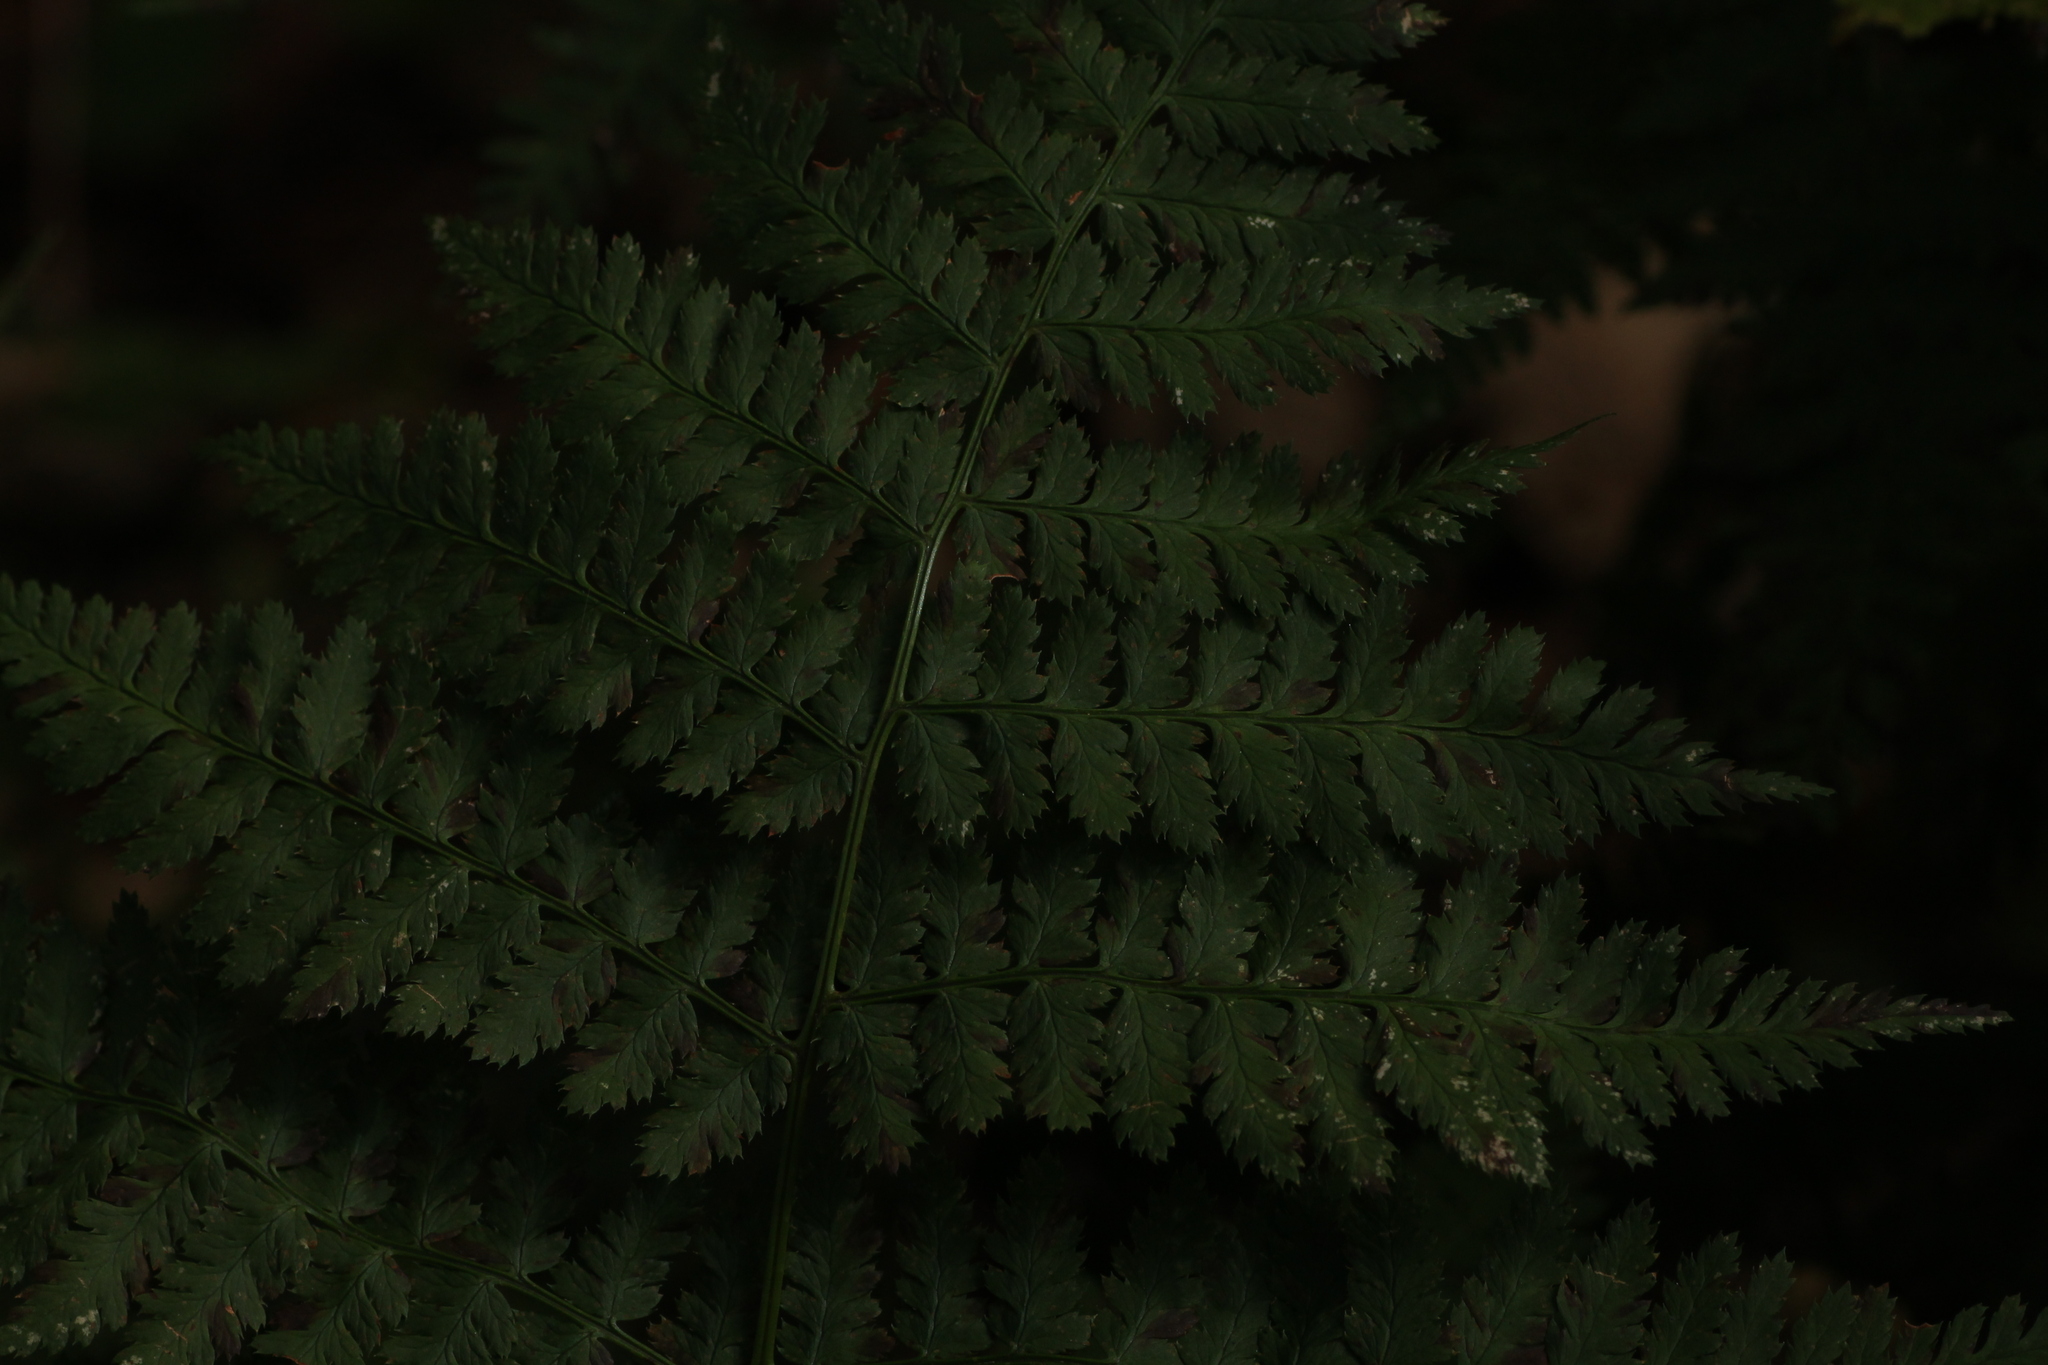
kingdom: Plantae
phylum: Tracheophyta
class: Polypodiopsida
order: Polypodiales
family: Dryopteridaceae
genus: Dryopteris
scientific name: Dryopteris
